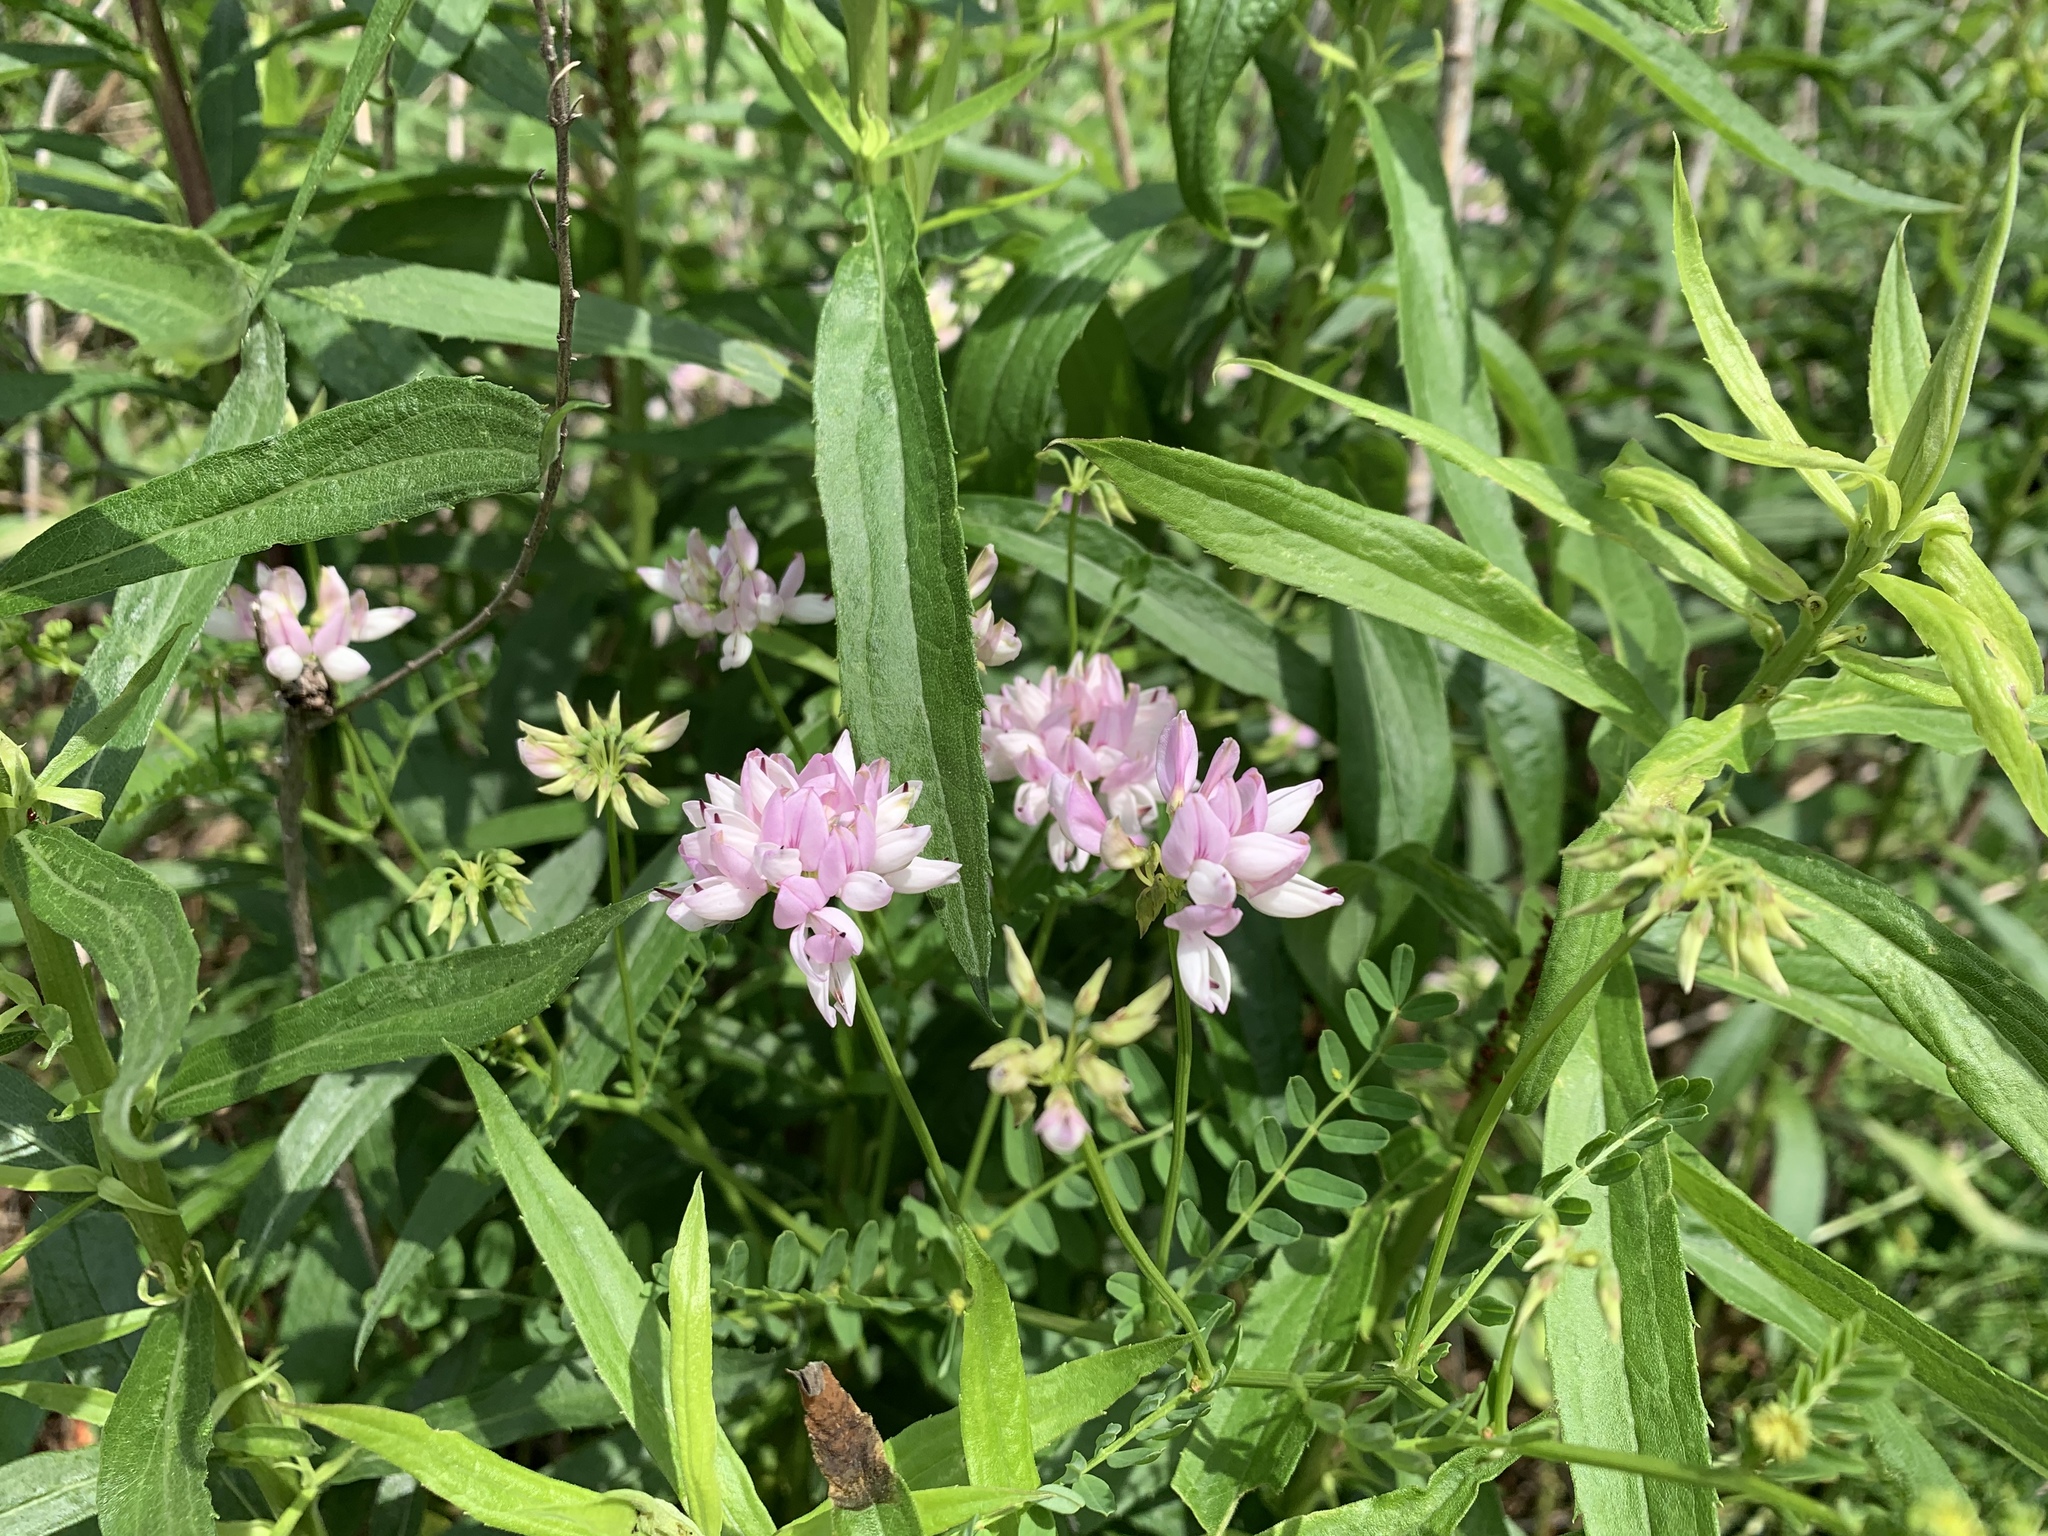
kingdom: Plantae
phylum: Tracheophyta
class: Magnoliopsida
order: Fabales
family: Fabaceae
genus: Coronilla
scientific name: Coronilla varia
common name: Crownvetch
